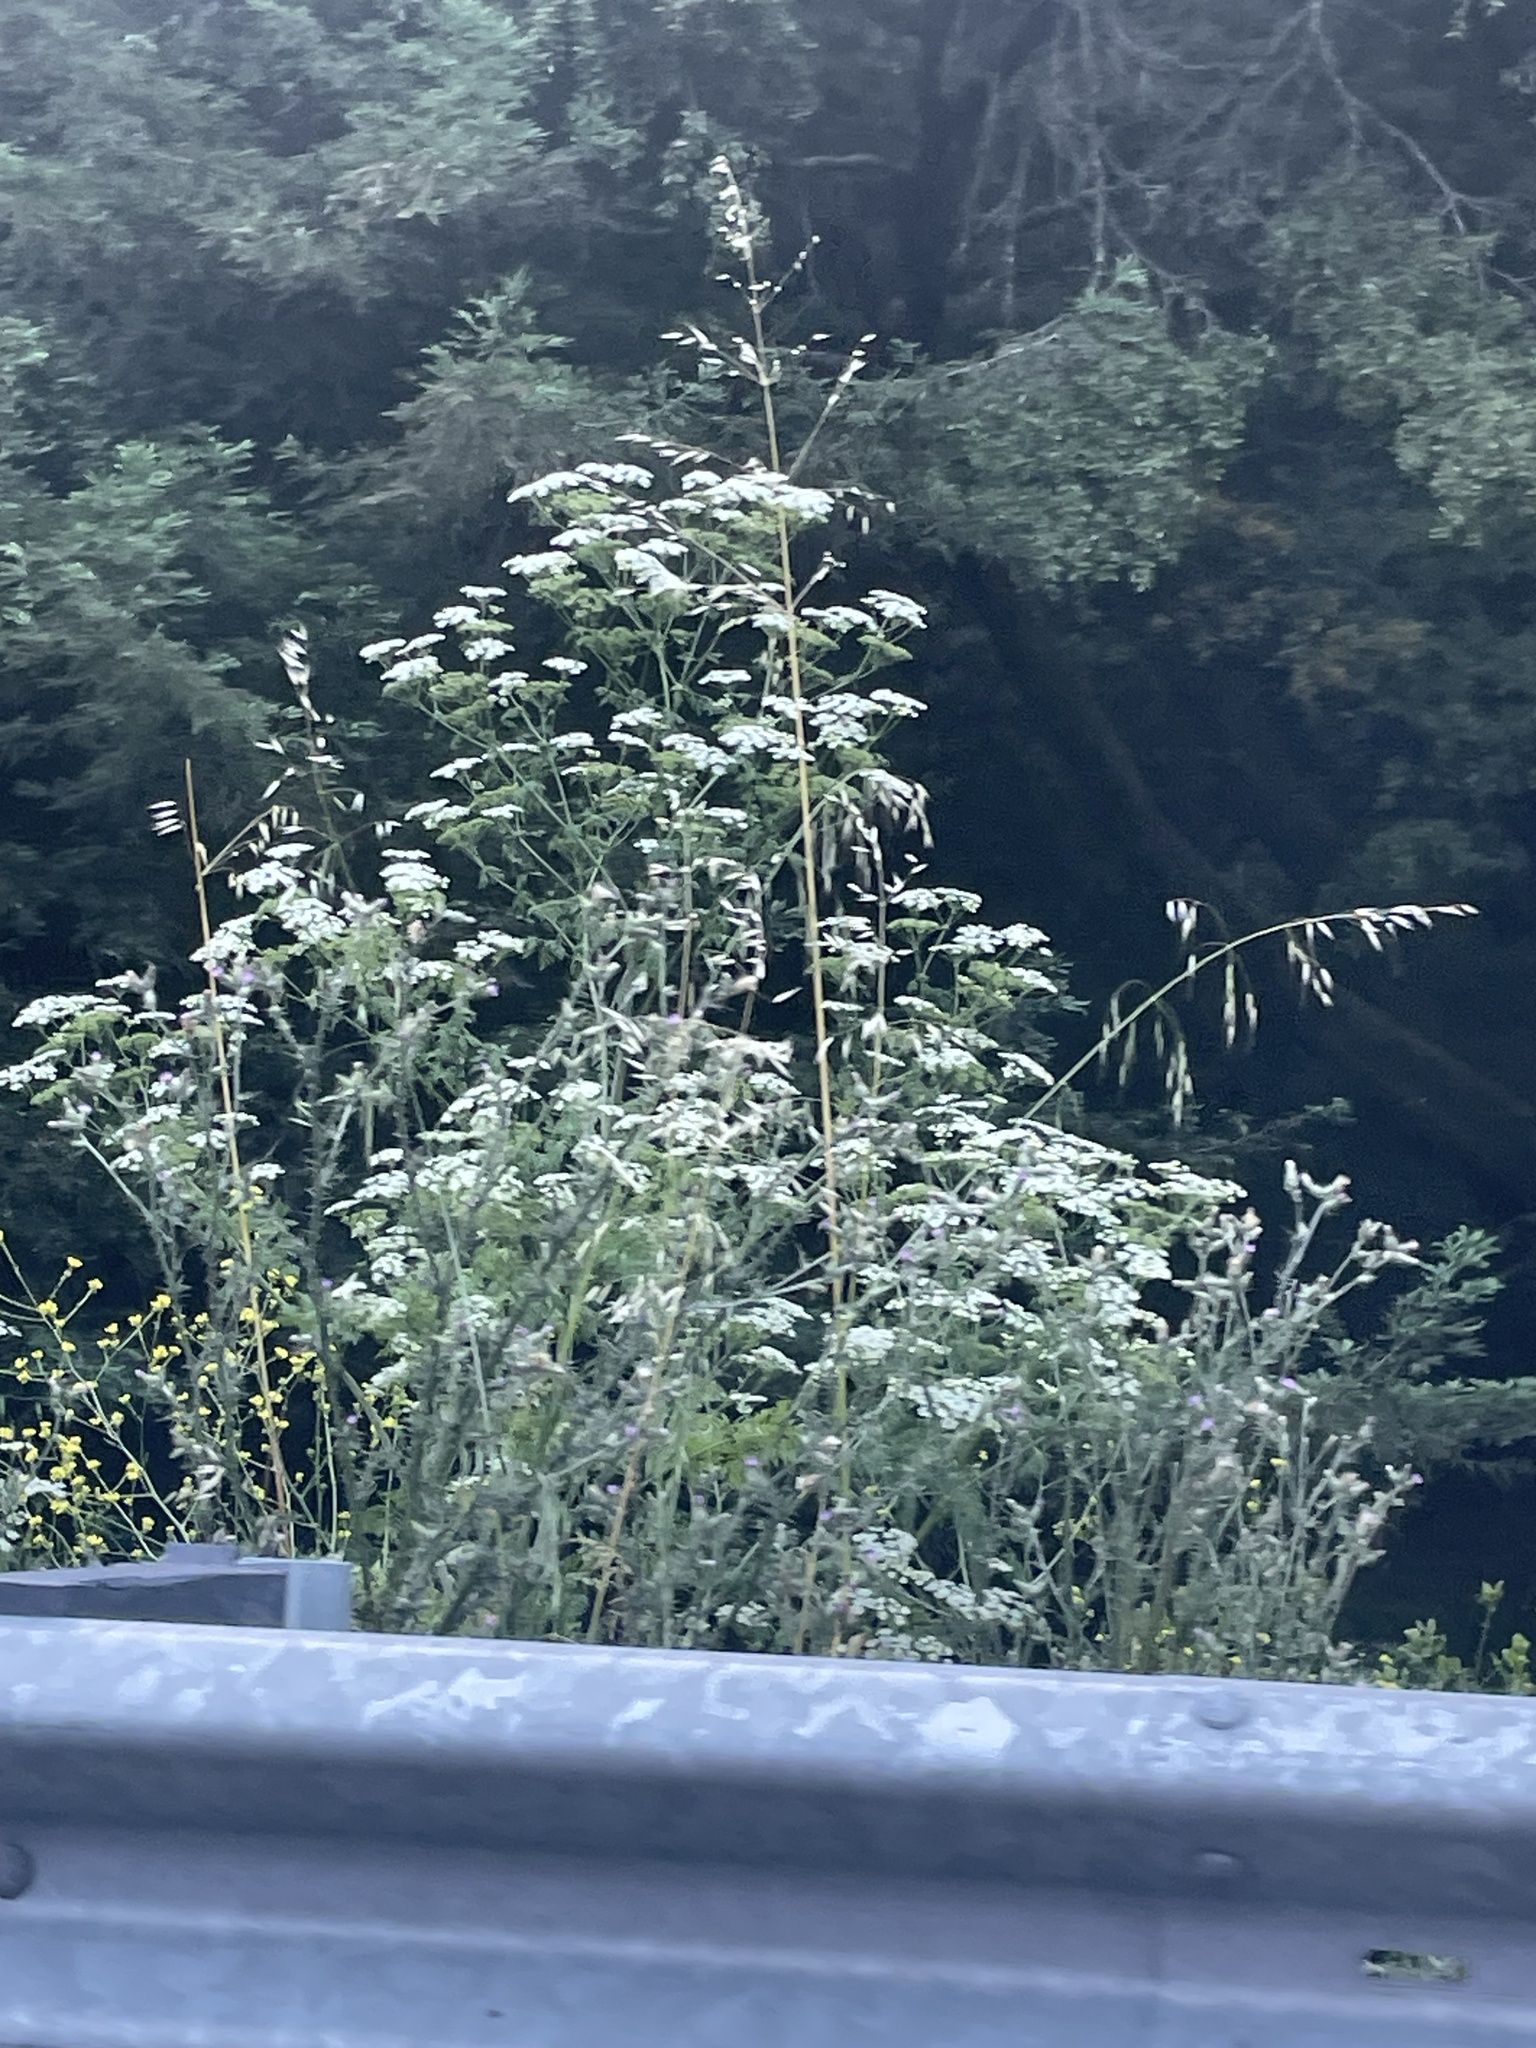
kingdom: Plantae
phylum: Tracheophyta
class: Magnoliopsida
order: Apiales
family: Apiaceae
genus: Conium
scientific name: Conium maculatum
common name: Hemlock
